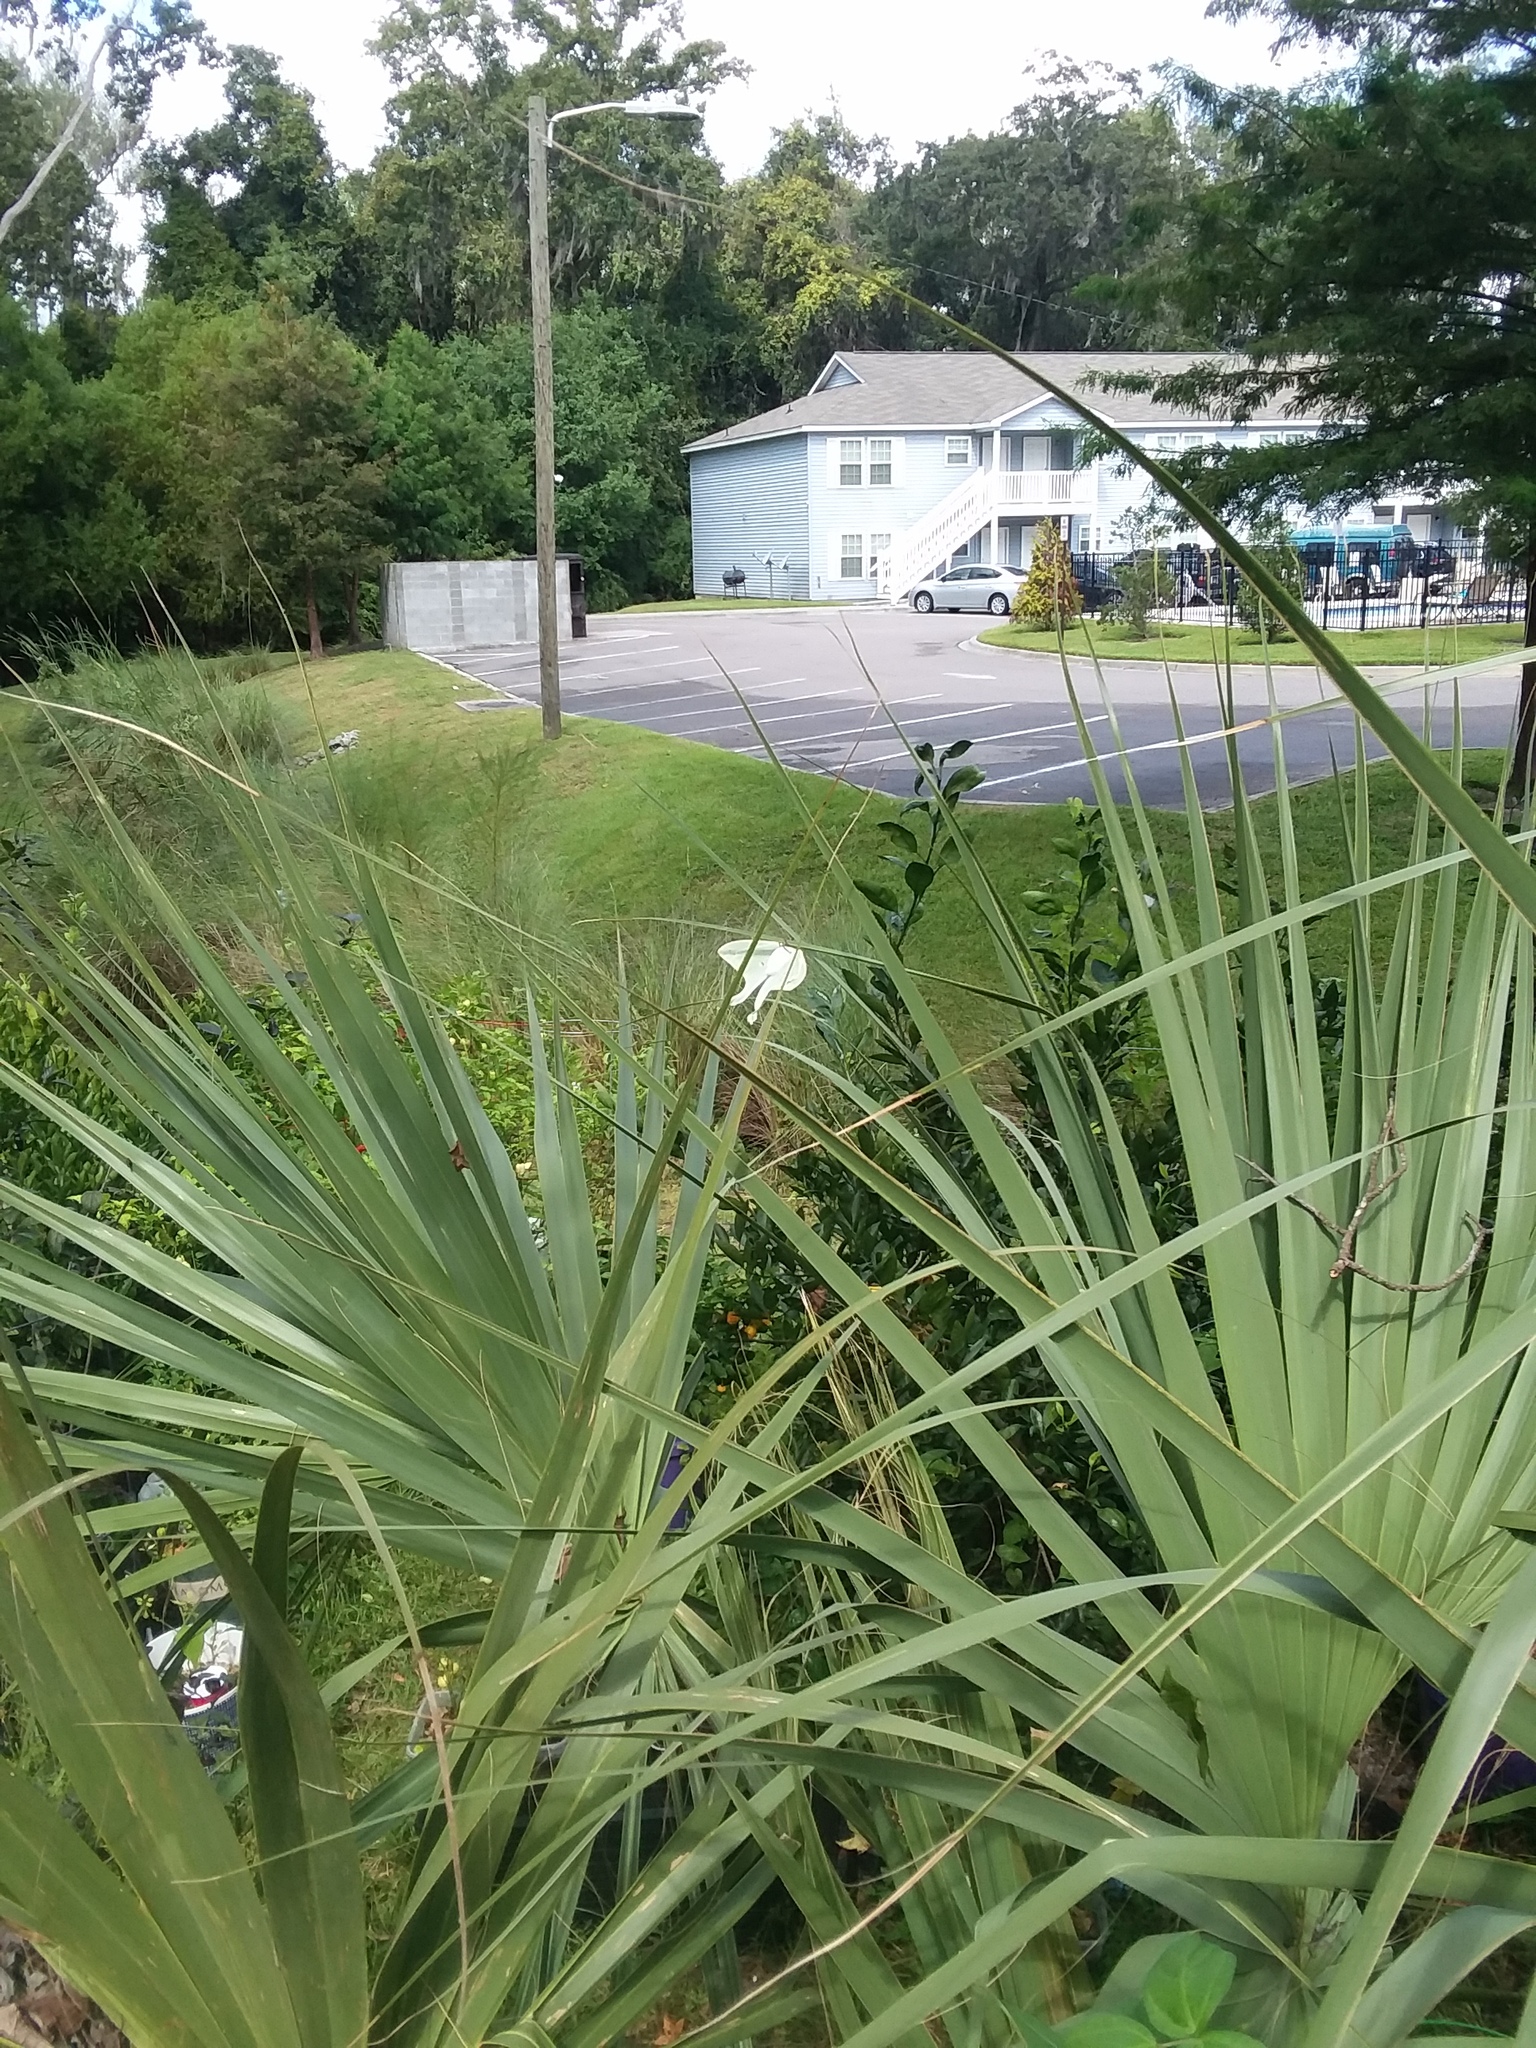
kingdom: Animalia
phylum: Arthropoda
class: Insecta
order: Lepidoptera
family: Saturniidae
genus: Actias
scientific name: Actias luna
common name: Luna moth
